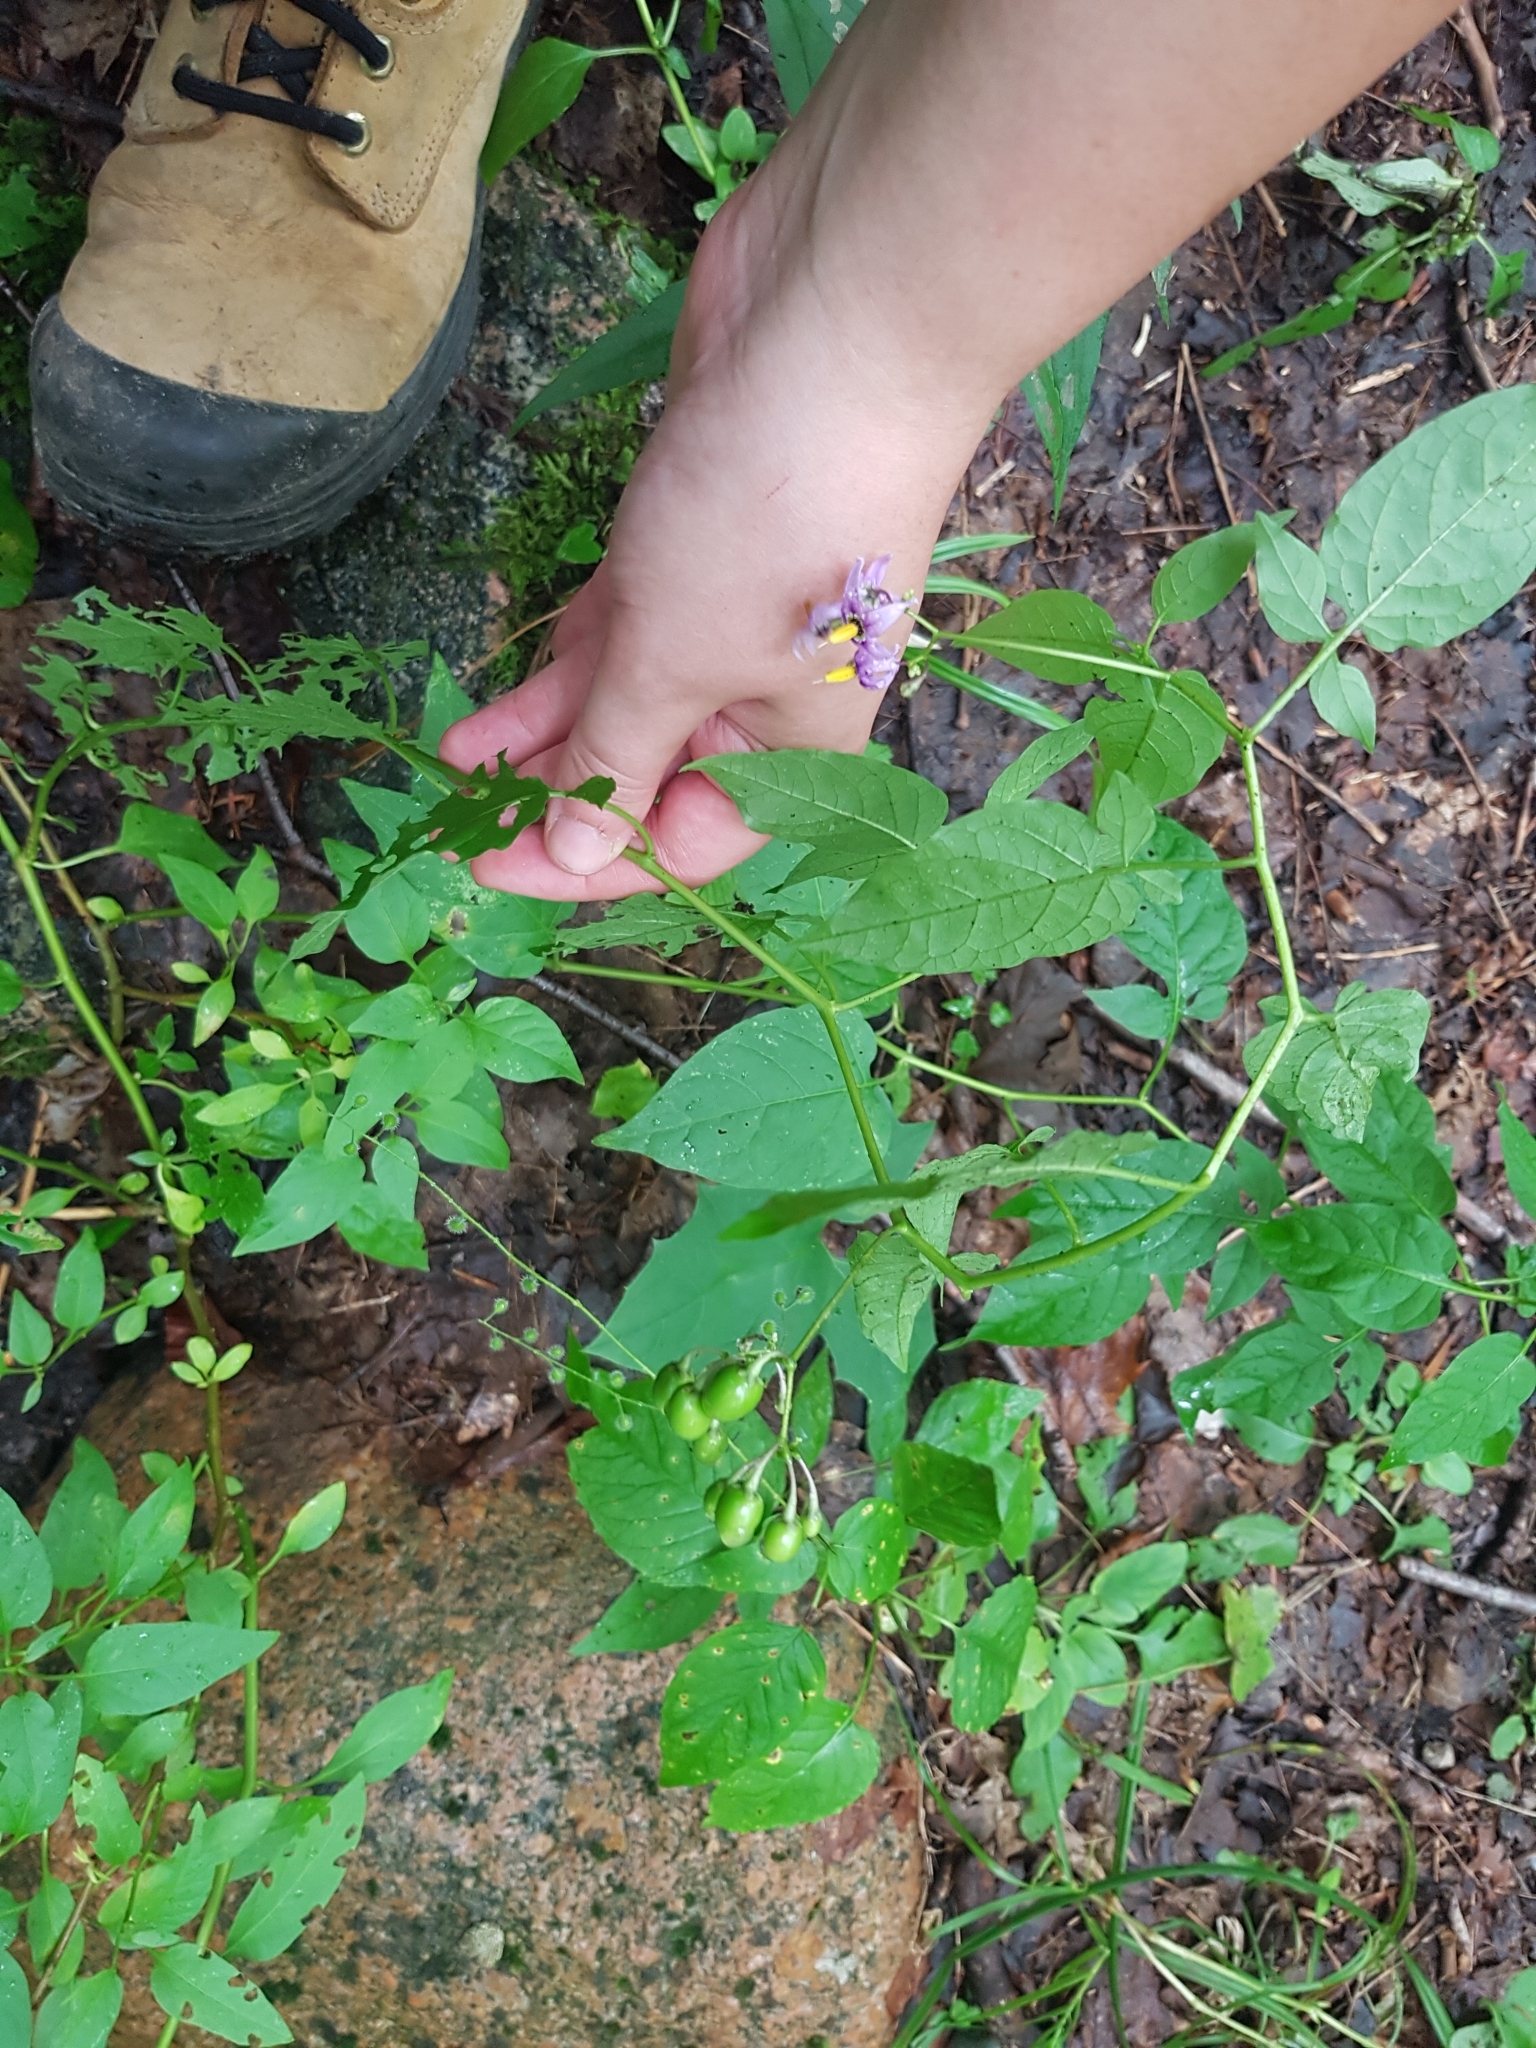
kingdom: Plantae
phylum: Tracheophyta
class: Magnoliopsida
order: Solanales
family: Solanaceae
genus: Solanum
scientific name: Solanum dulcamara
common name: Climbing nightshade
